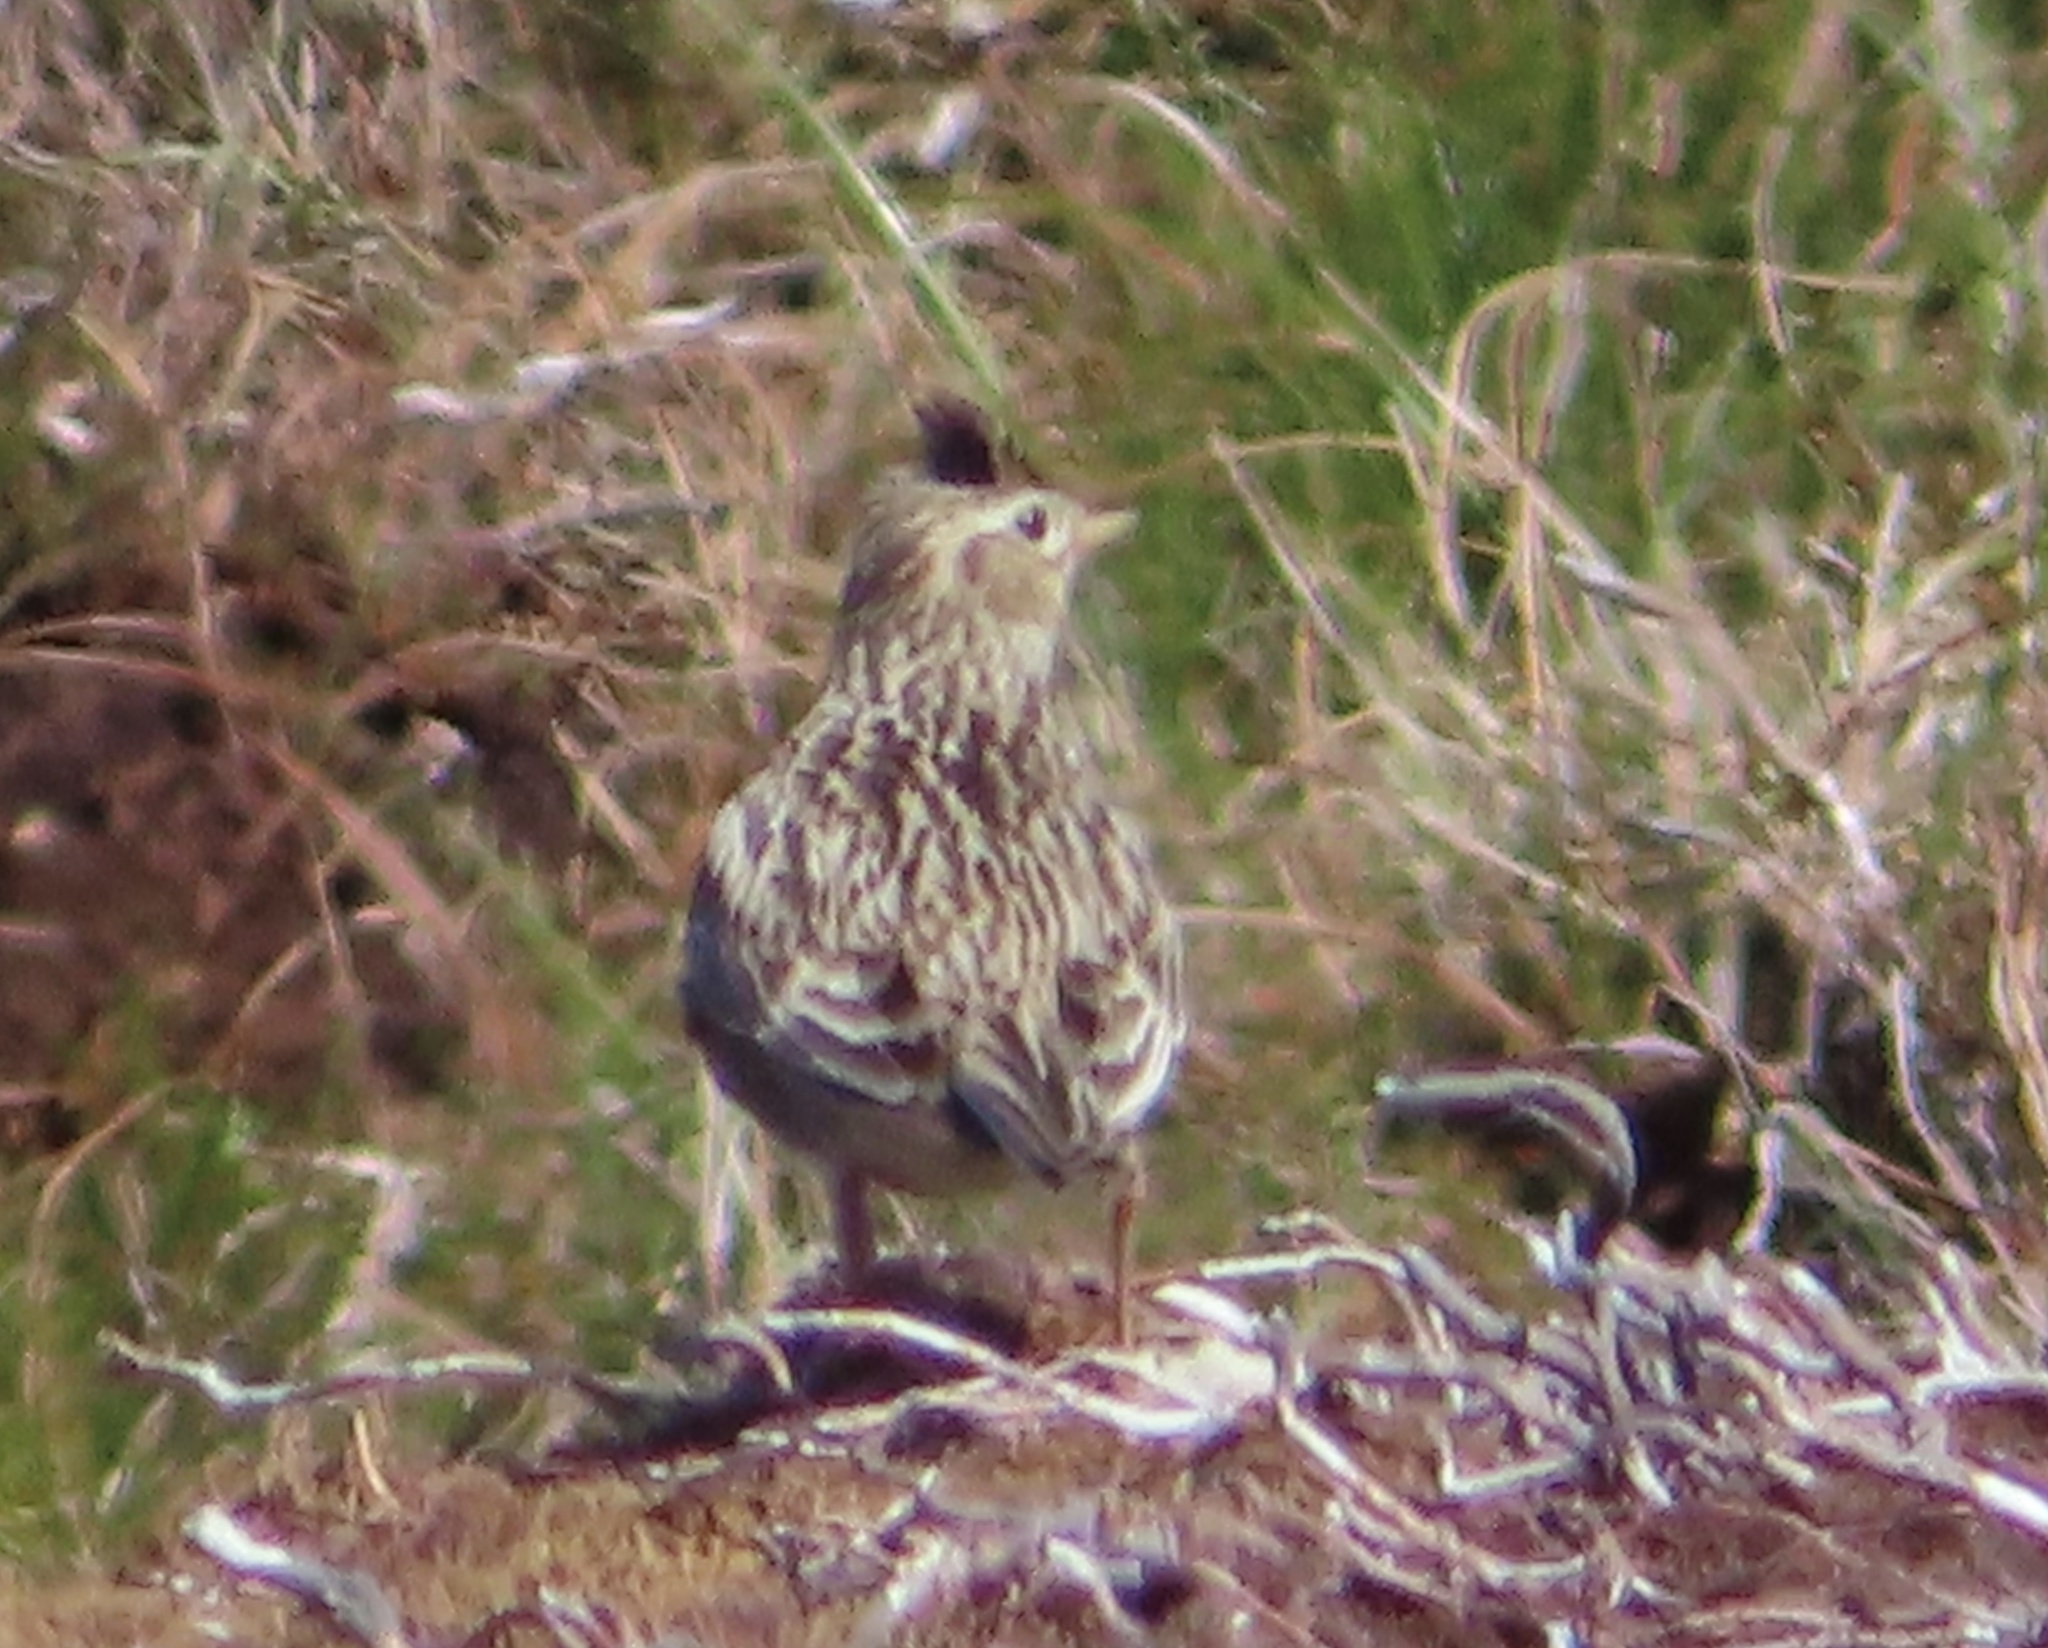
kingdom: Animalia
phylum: Chordata
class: Aves
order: Passeriformes
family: Alaudidae
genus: Alauda
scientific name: Alauda arvensis
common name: Eurasian skylark
